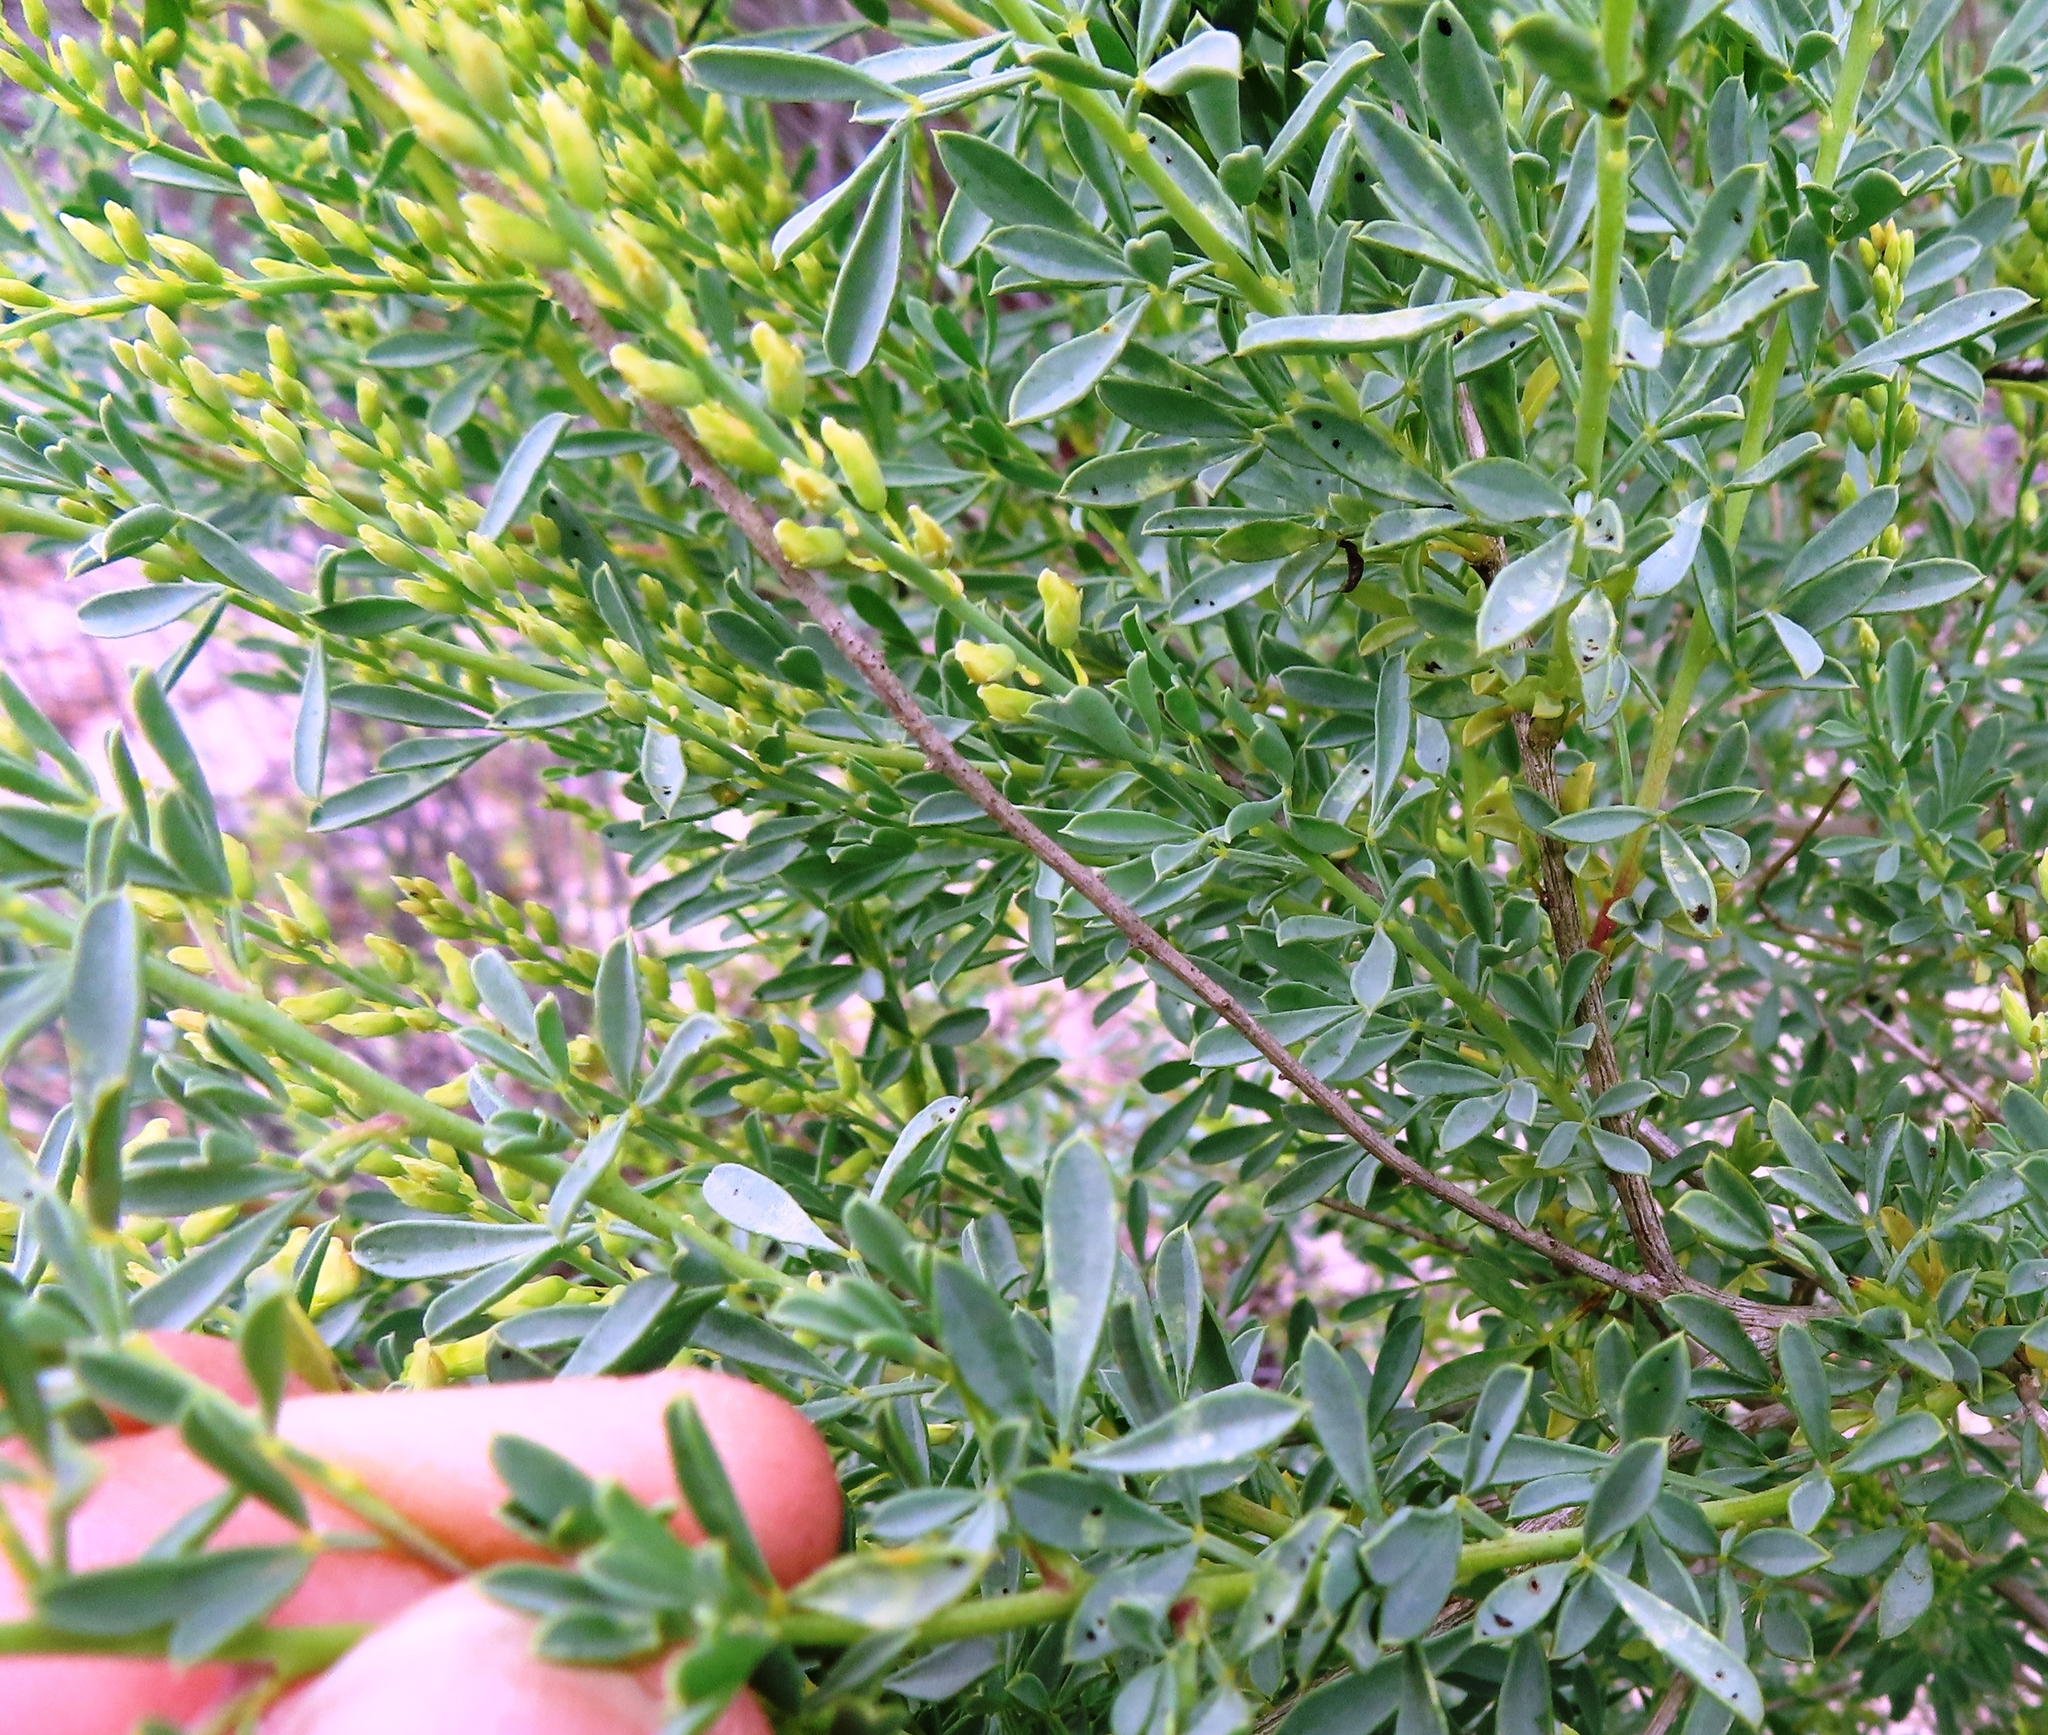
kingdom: Plantae
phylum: Tracheophyta
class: Magnoliopsida
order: Fabales
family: Fabaceae
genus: Wiborgia
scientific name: Wiborgia fusca
